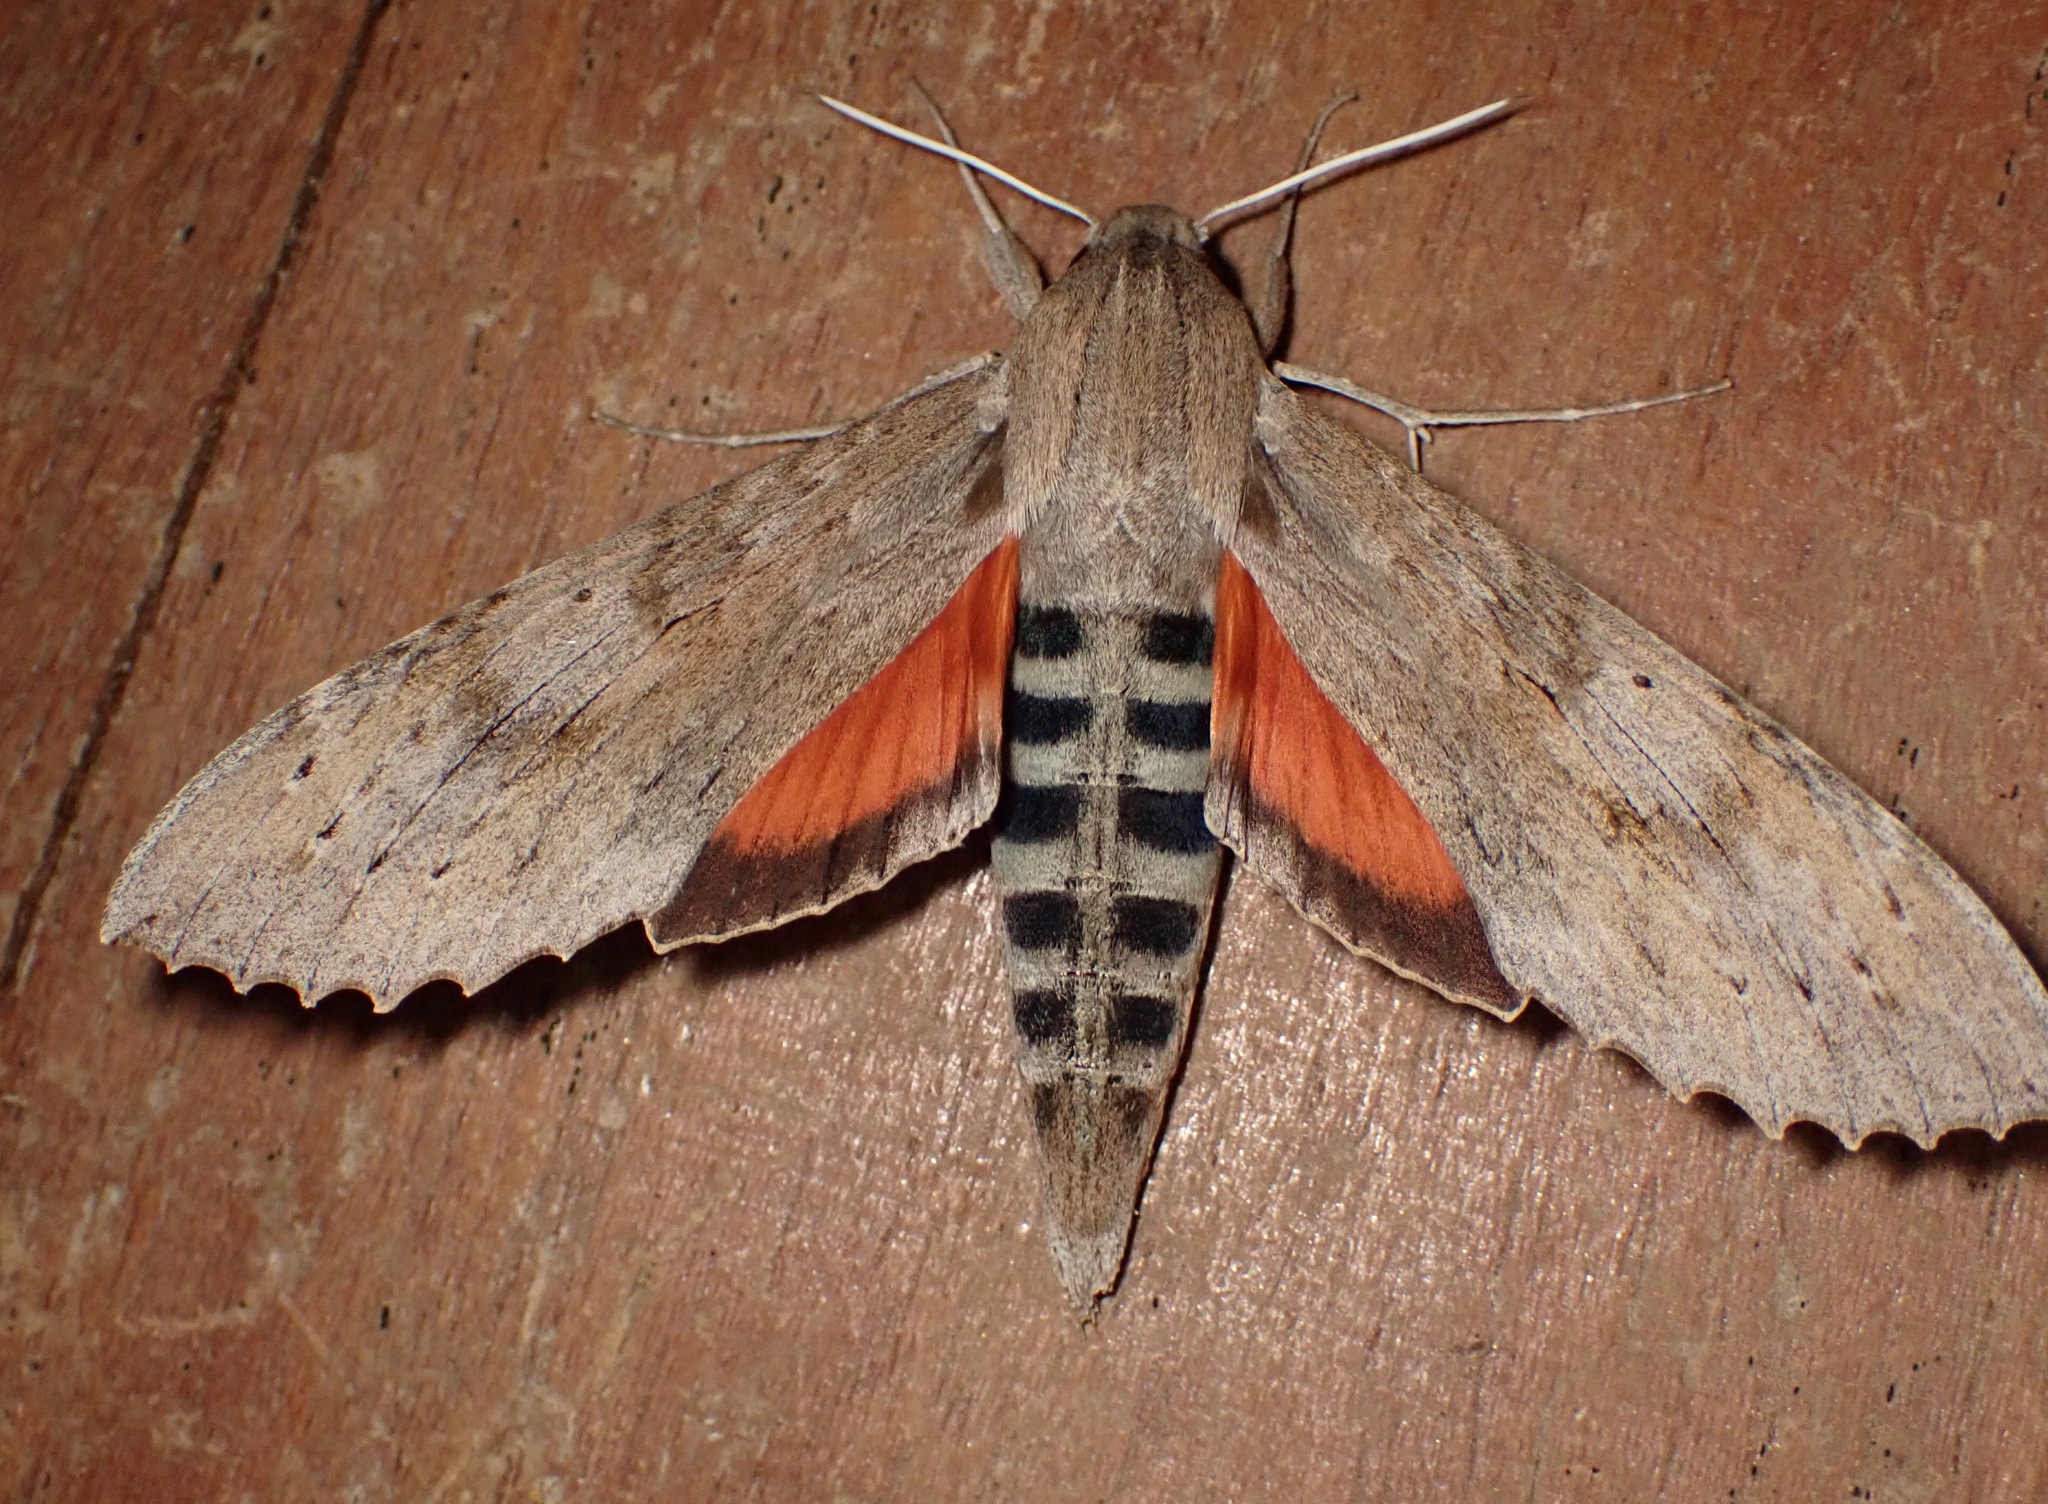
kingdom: Animalia
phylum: Arthropoda
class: Insecta
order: Lepidoptera
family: Sphingidae
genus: Erinnyis
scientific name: Erinnyis ello
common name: Ello sphinx
